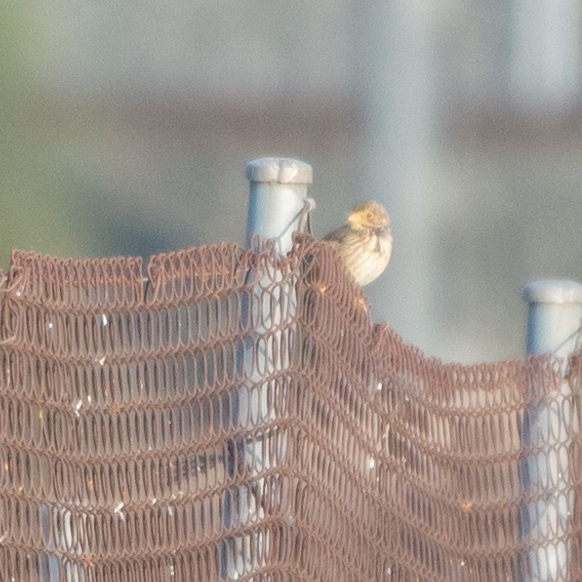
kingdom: Animalia
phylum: Chordata
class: Aves
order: Passeriformes
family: Emberizidae
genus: Emberiza
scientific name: Emberiza calandra
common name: Corn bunting
